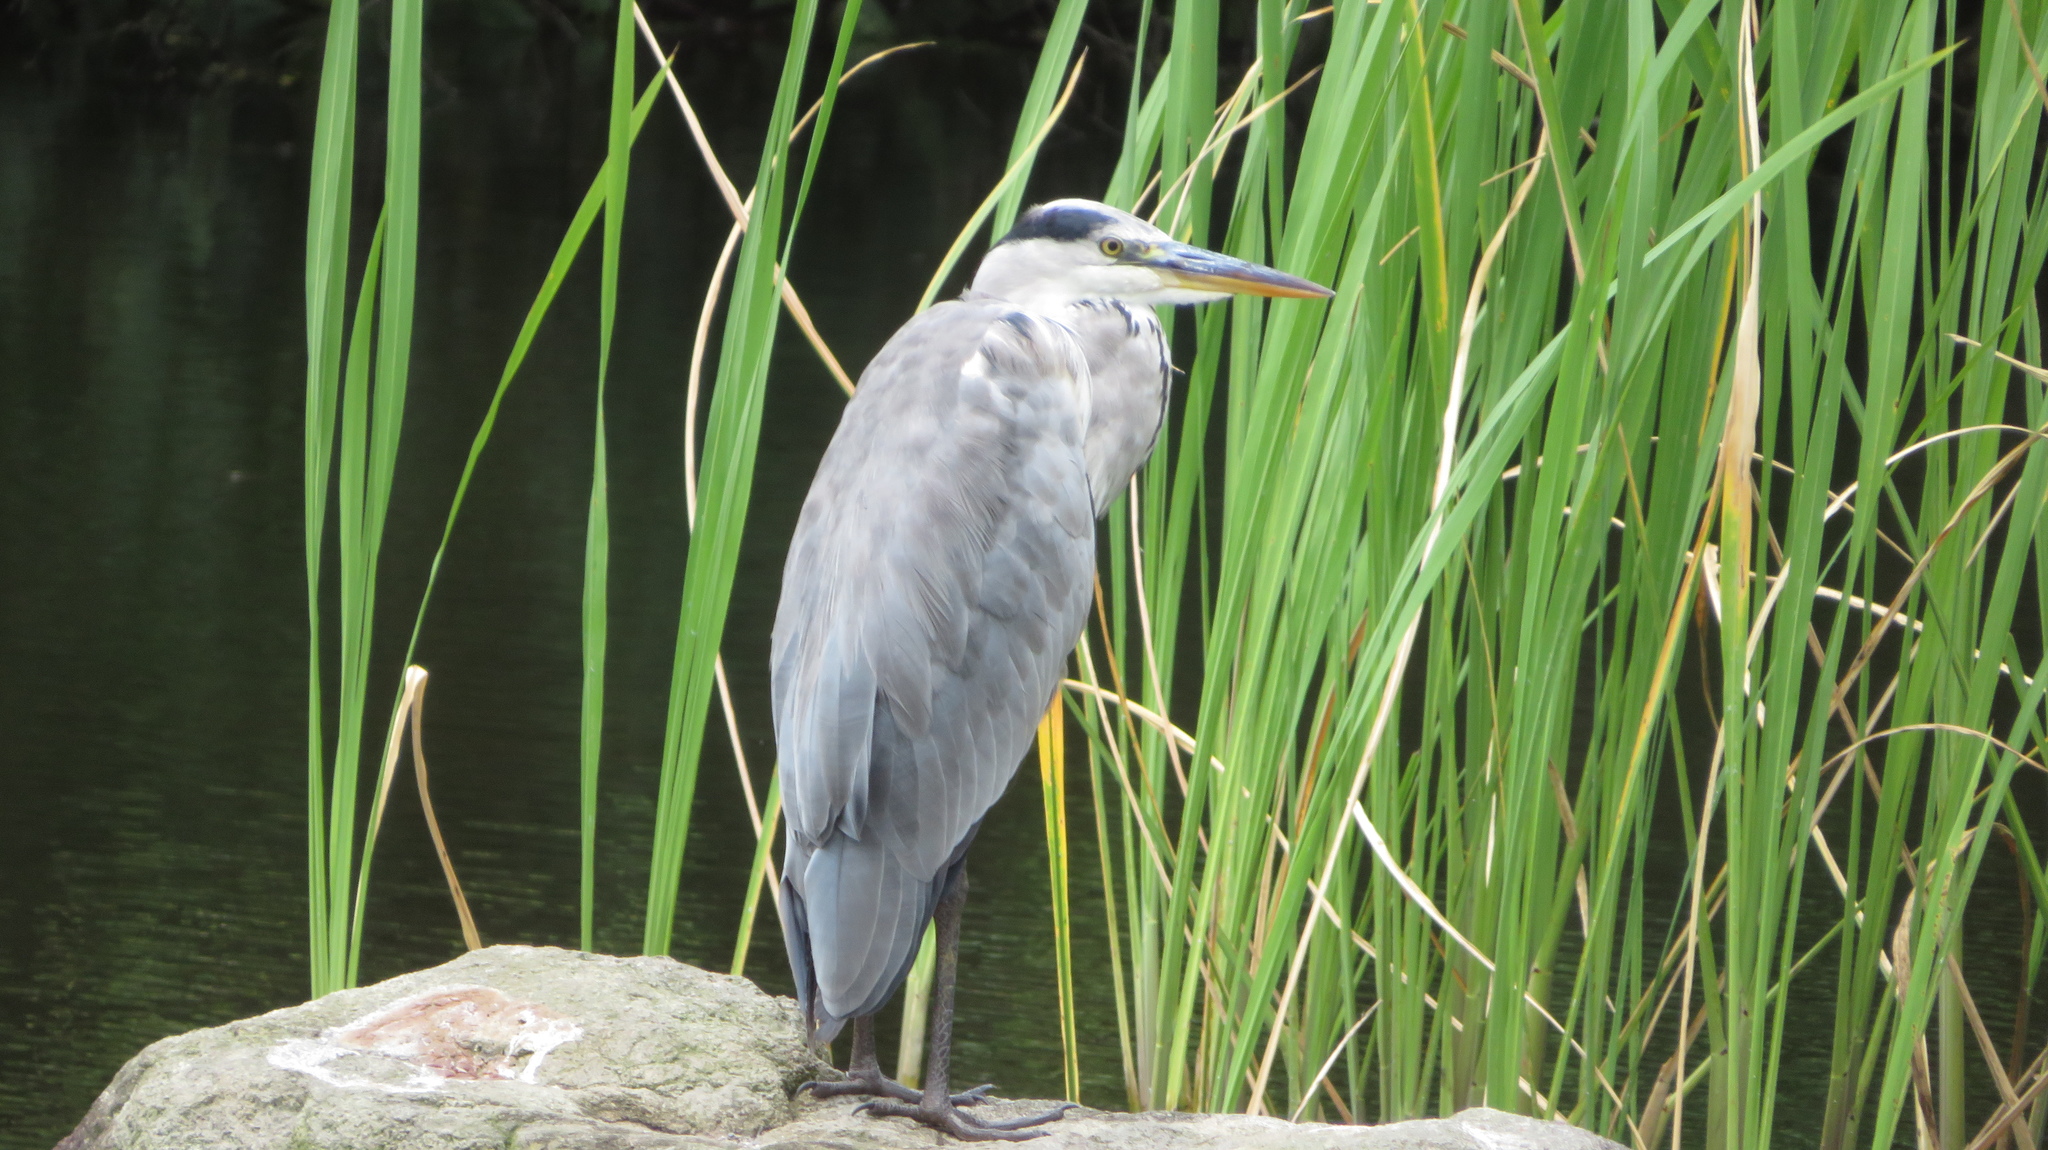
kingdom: Animalia
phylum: Chordata
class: Aves
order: Pelecaniformes
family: Ardeidae
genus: Ardea
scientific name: Ardea cinerea
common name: Grey heron
